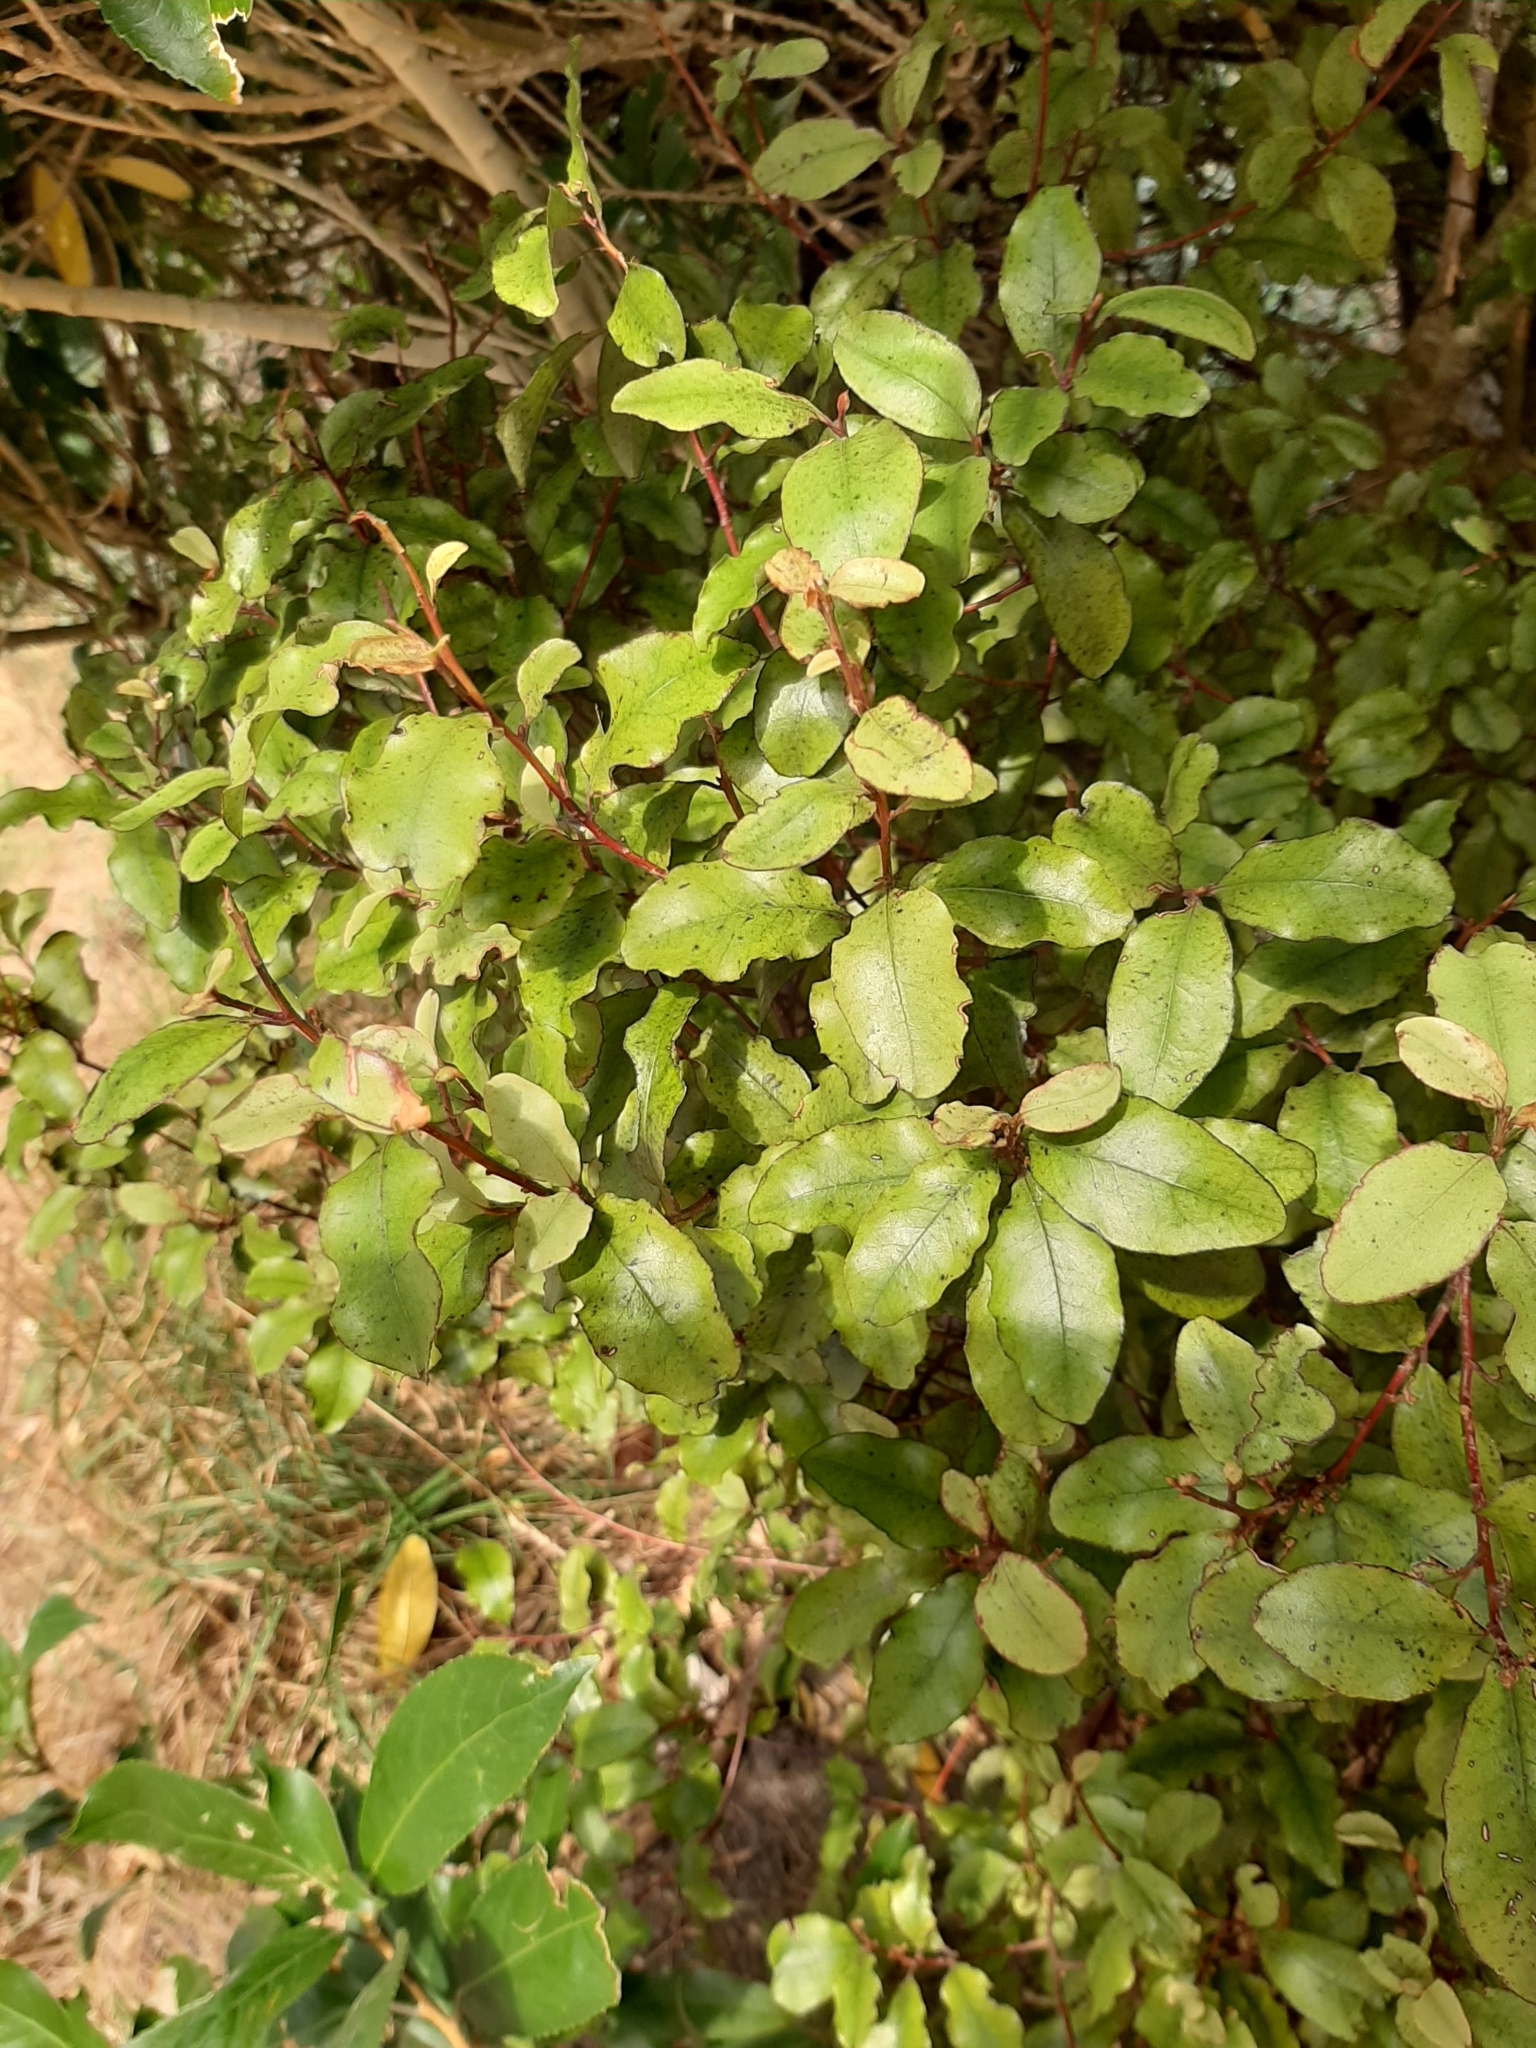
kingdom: Plantae
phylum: Tracheophyta
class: Magnoliopsida
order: Ericales
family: Primulaceae
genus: Myrsine
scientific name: Myrsine australis
